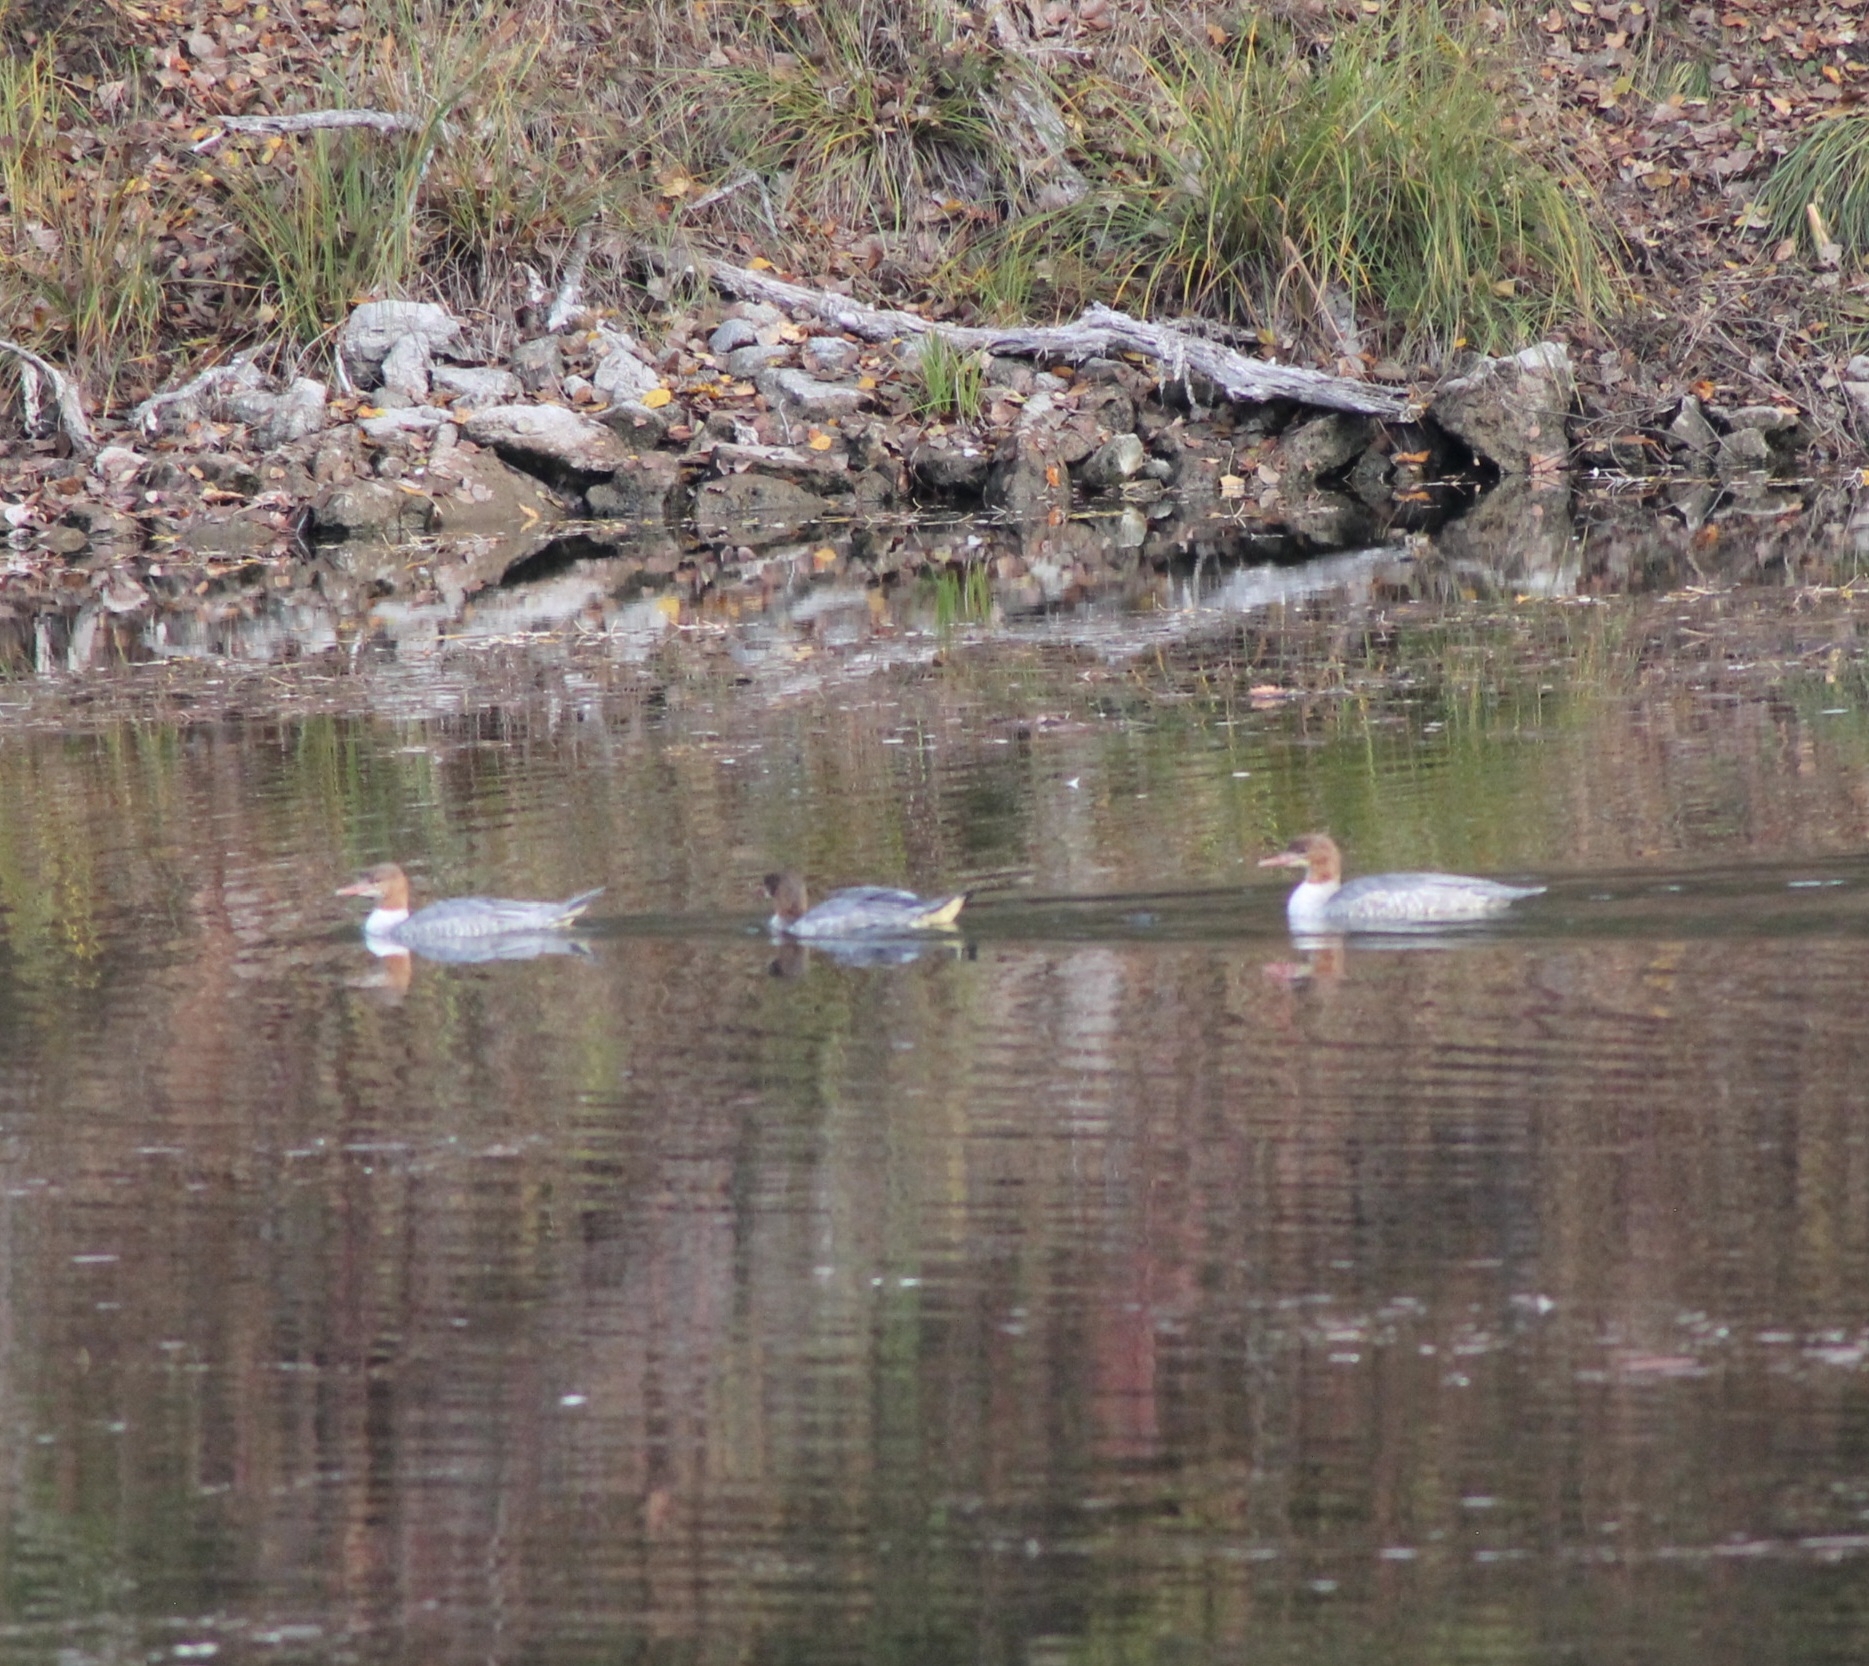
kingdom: Animalia
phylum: Chordata
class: Aves
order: Anseriformes
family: Anatidae
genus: Mergus
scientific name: Mergus merganser
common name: Common merganser
